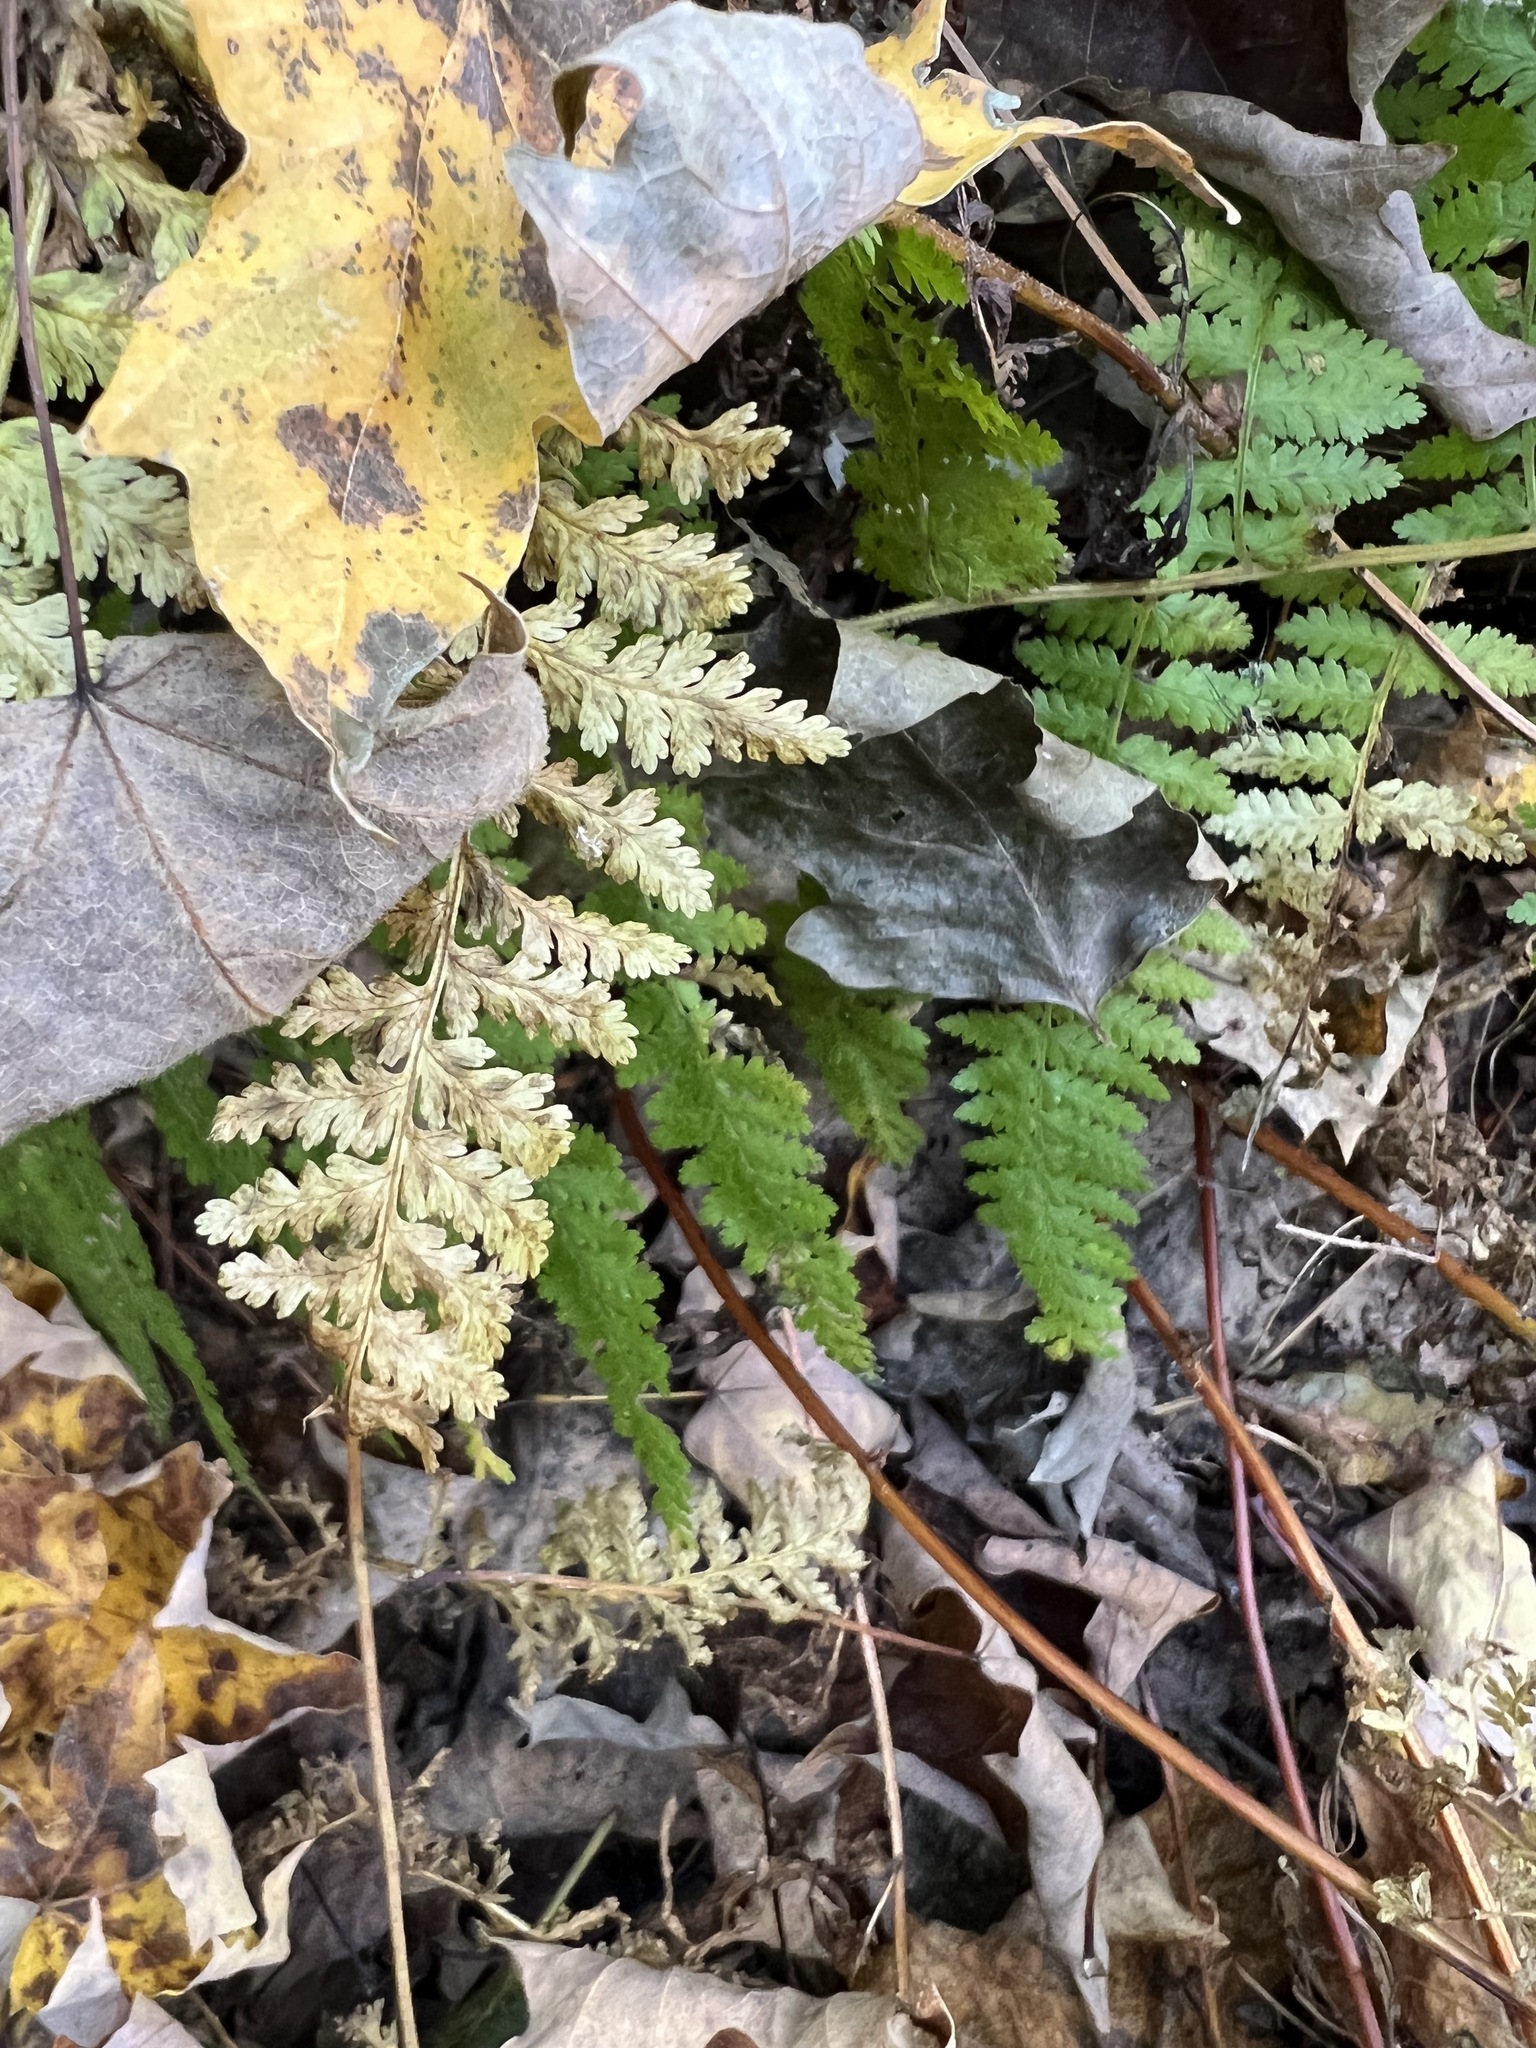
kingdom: Plantae
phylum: Tracheophyta
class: Polypodiopsida
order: Polypodiales
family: Dennstaedtiaceae
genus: Sitobolium
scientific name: Sitobolium punctilobum
